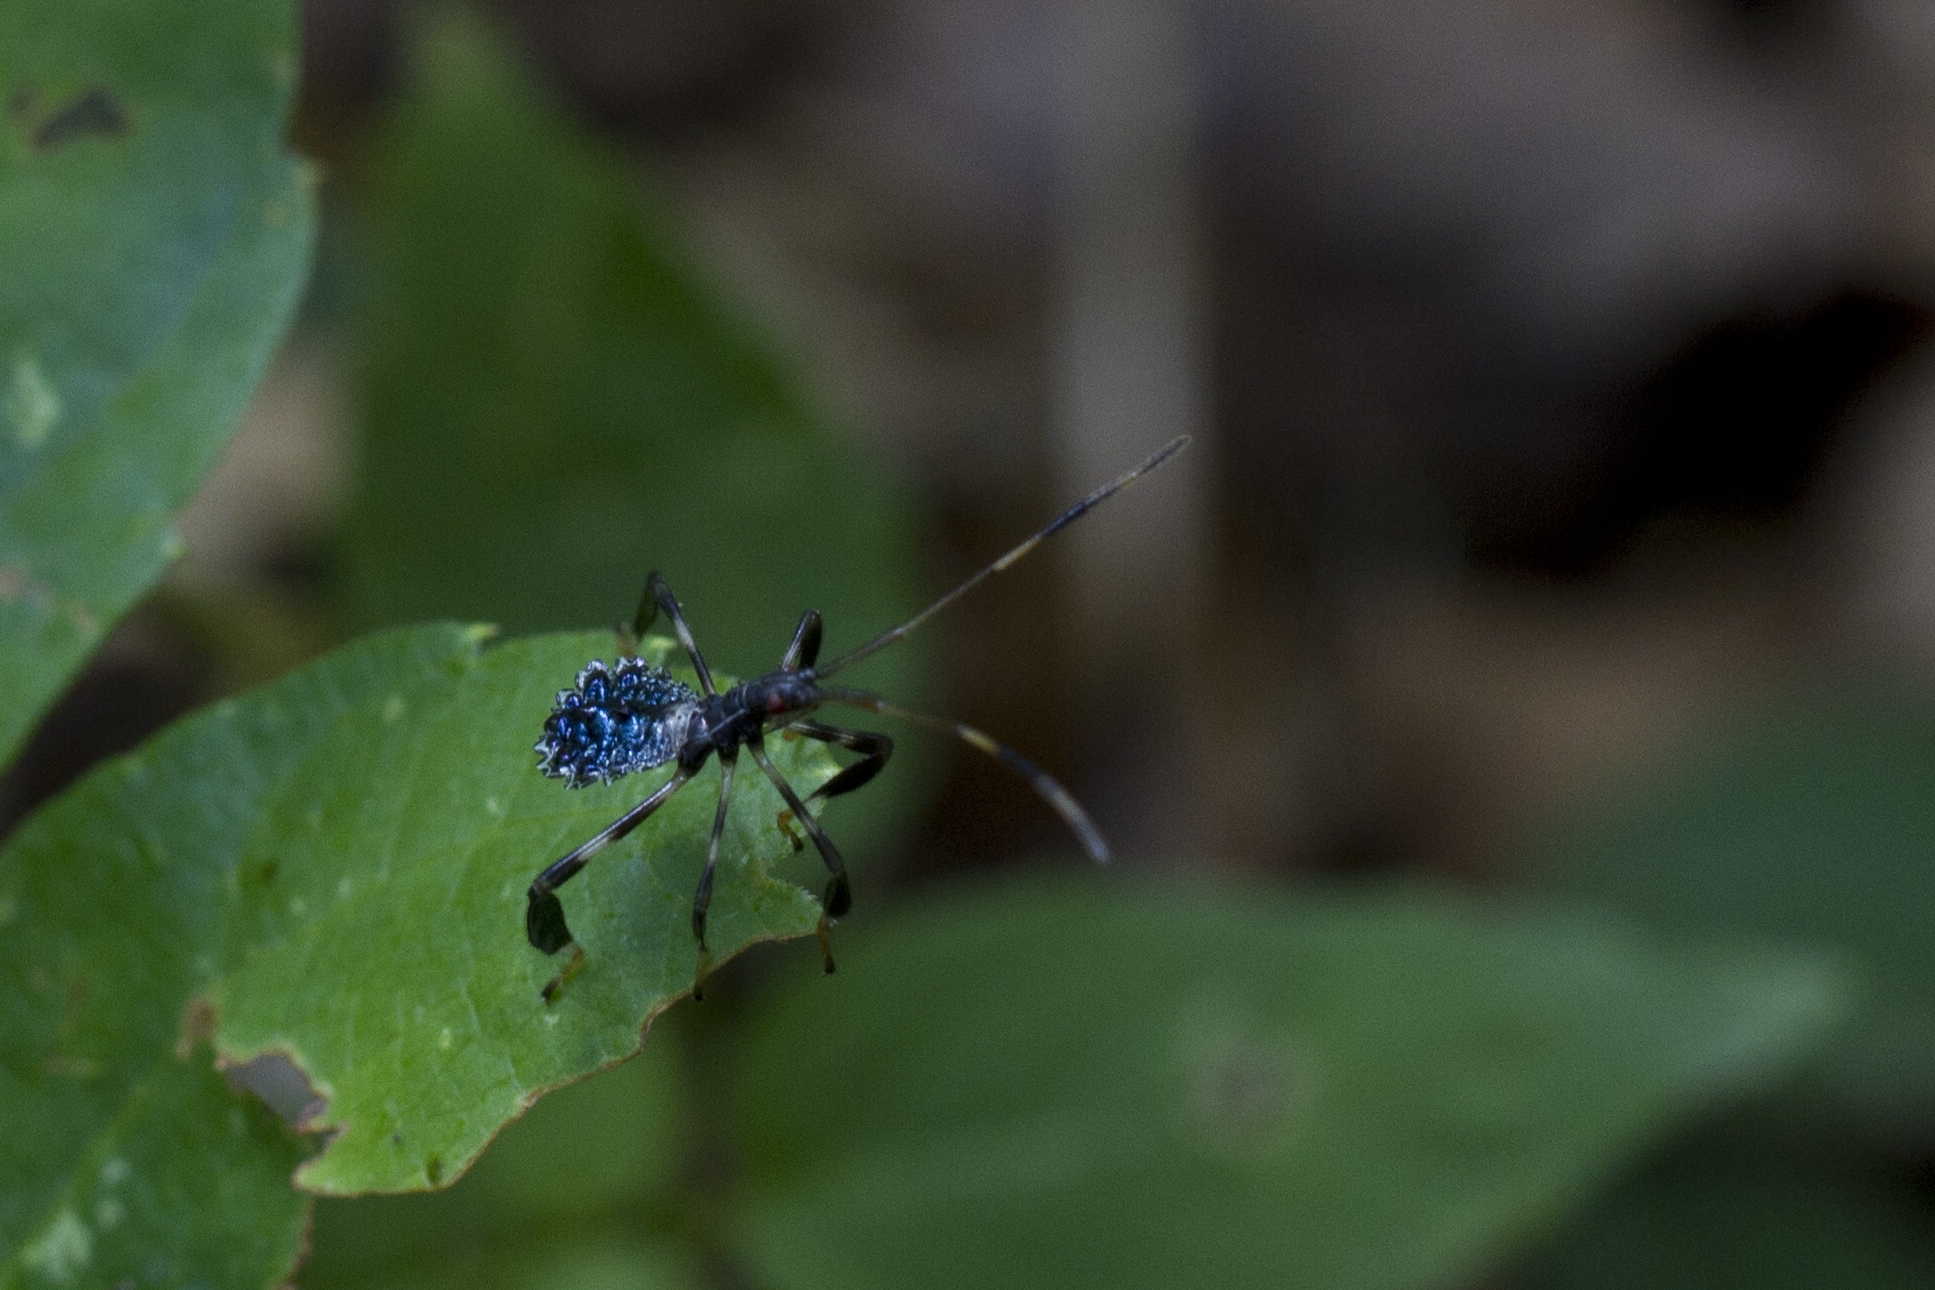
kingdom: Animalia
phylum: Arthropoda
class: Insecta
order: Hemiptera
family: Coreidae
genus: Acanthocephala
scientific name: Acanthocephala terminalis
